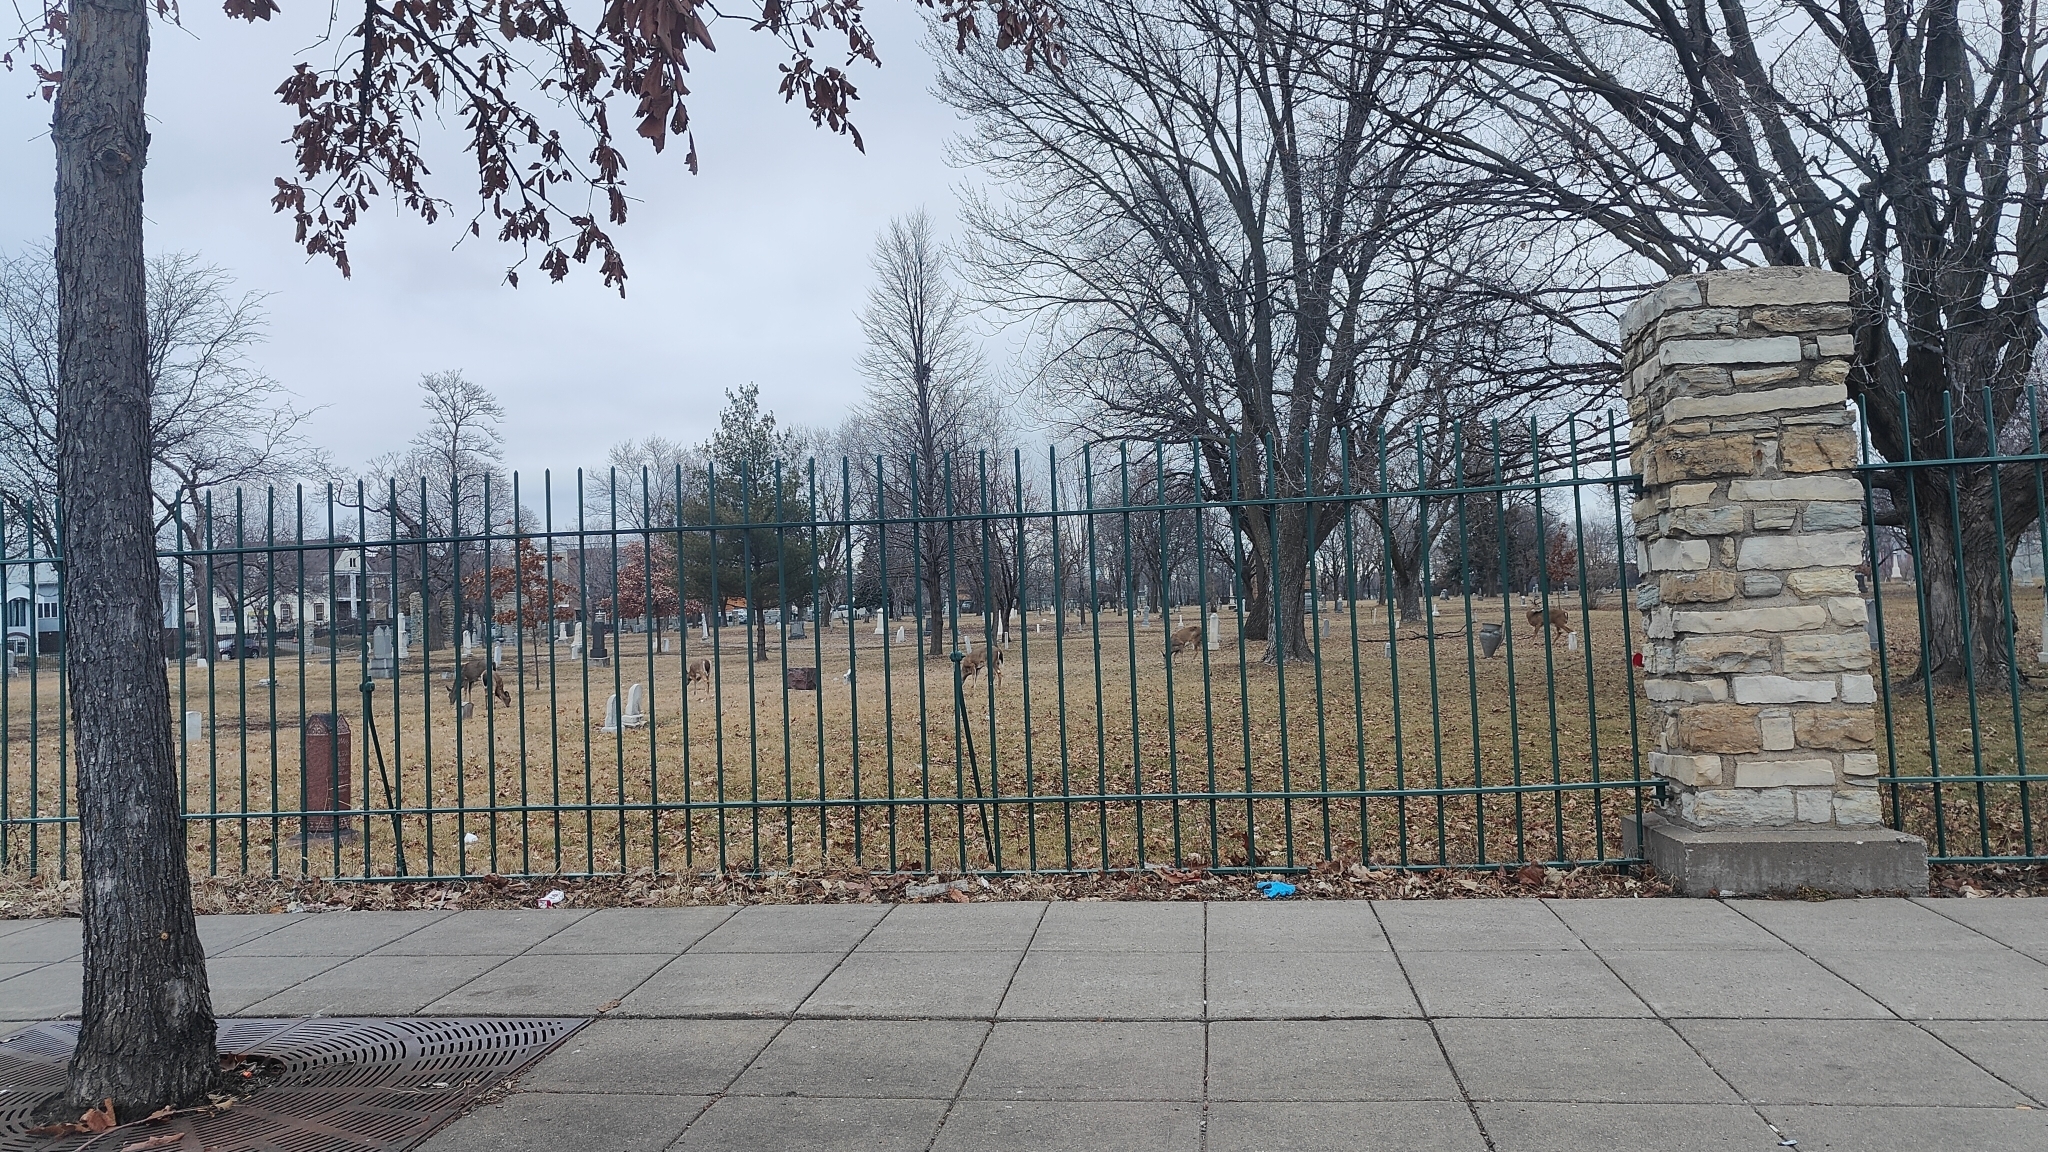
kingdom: Animalia
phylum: Chordata
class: Mammalia
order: Artiodactyla
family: Cervidae
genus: Odocoileus
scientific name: Odocoileus virginianus
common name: White-tailed deer
